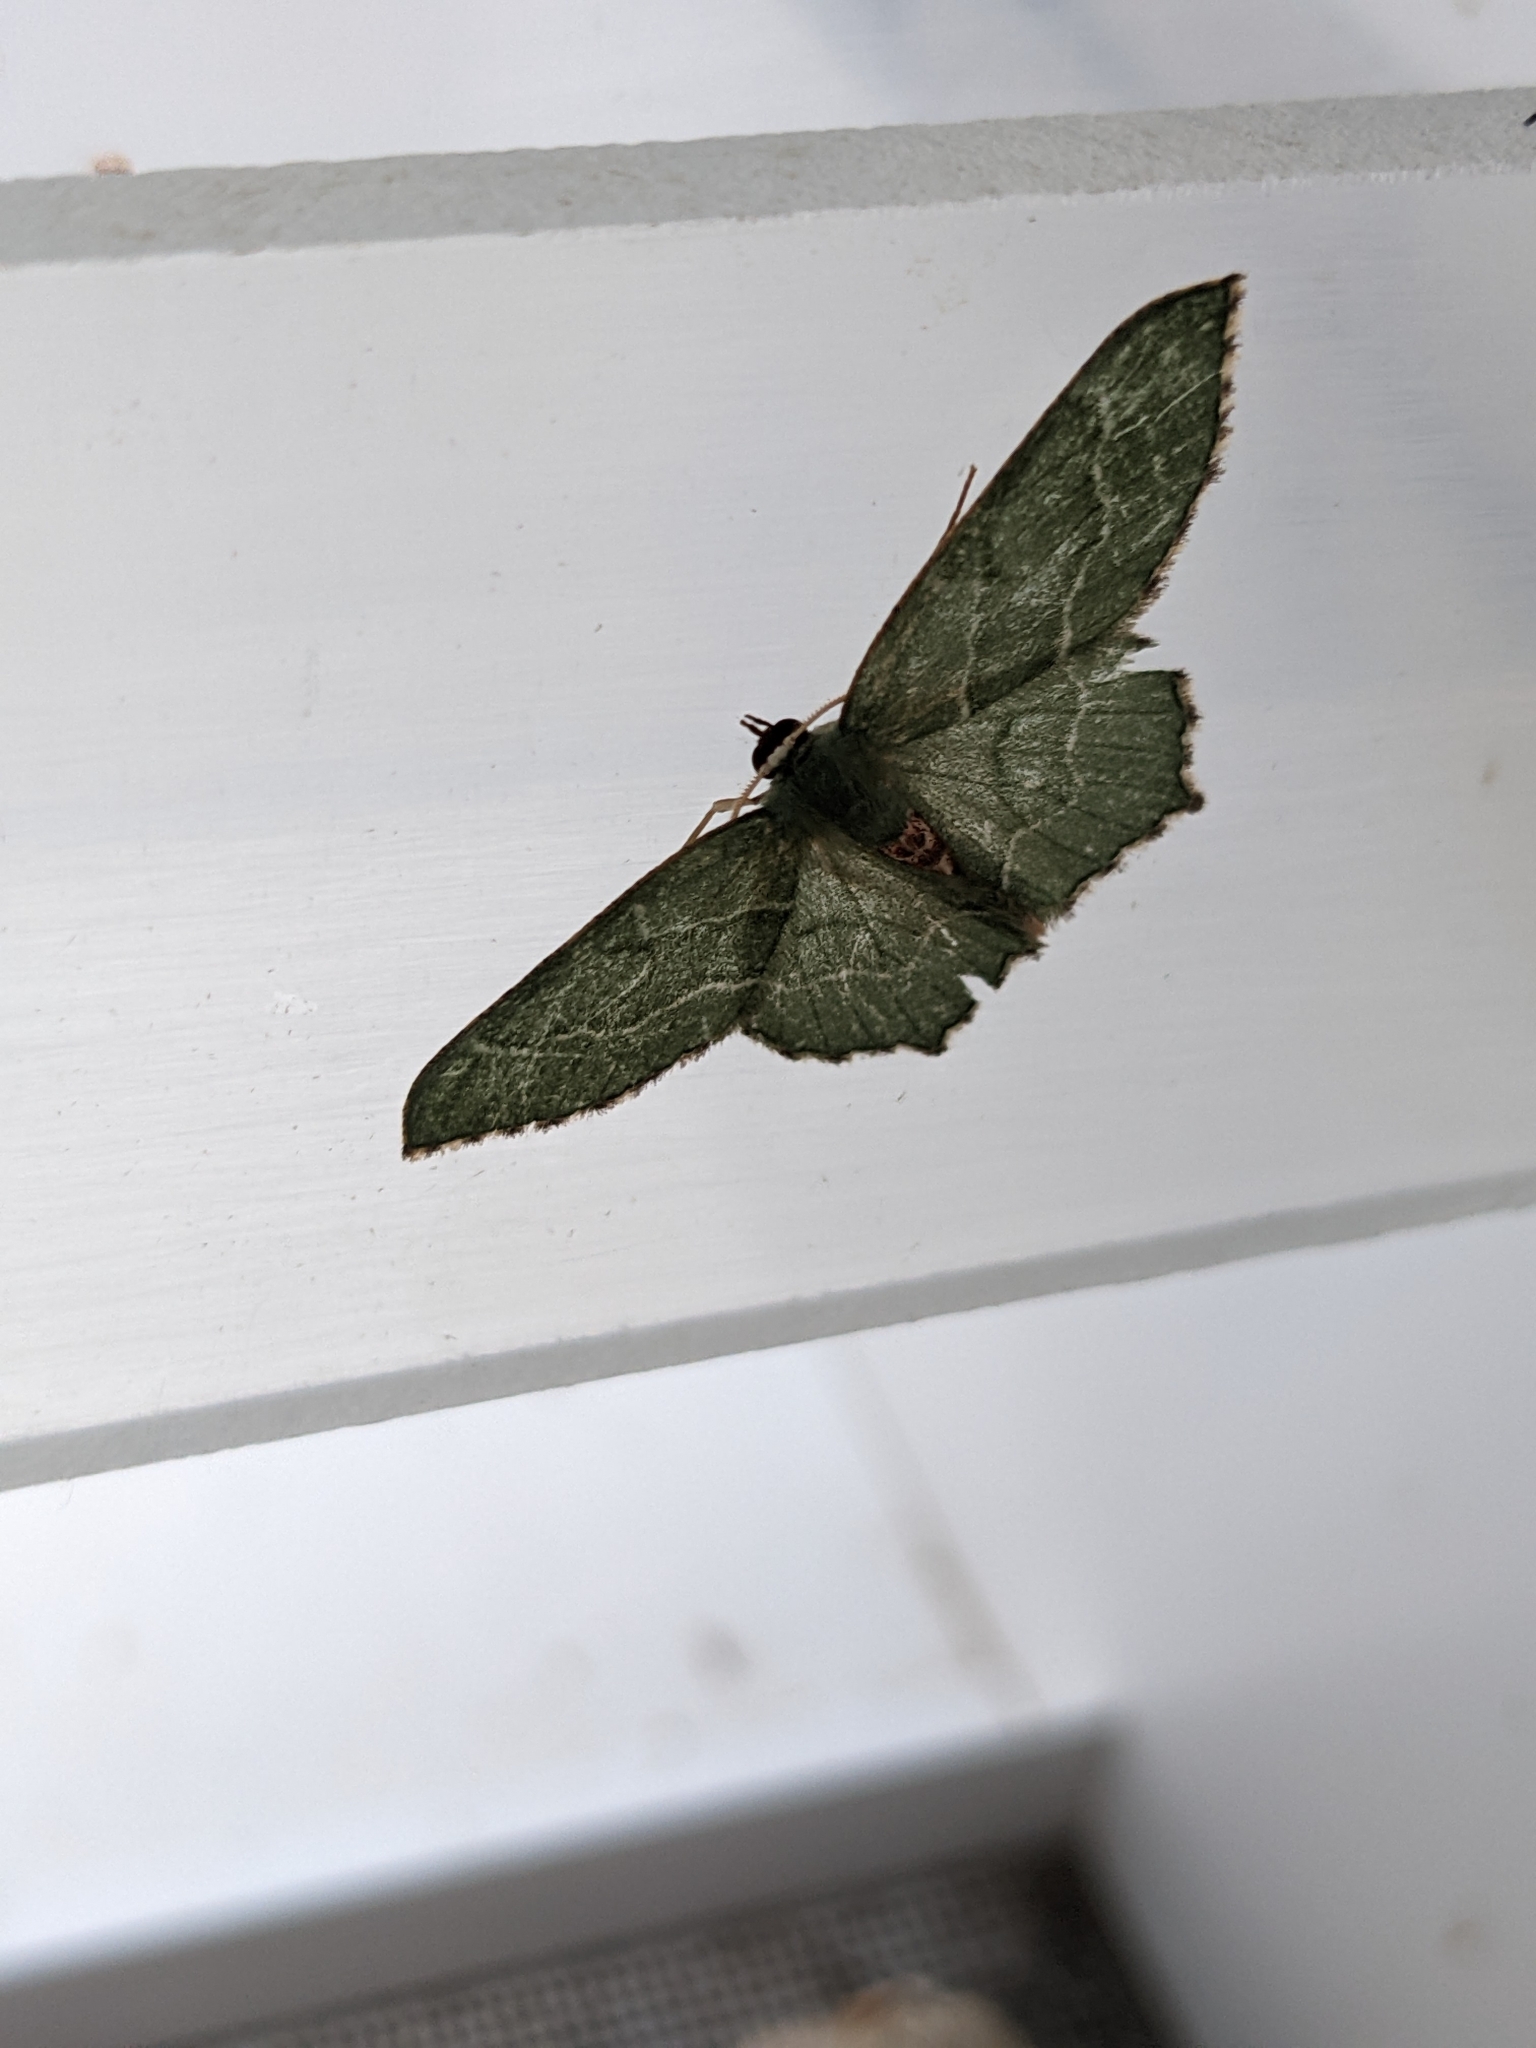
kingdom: Animalia
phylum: Arthropoda
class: Insecta
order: Lepidoptera
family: Geometridae
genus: Hemithea
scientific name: Hemithea aestivaria
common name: Common emerald
